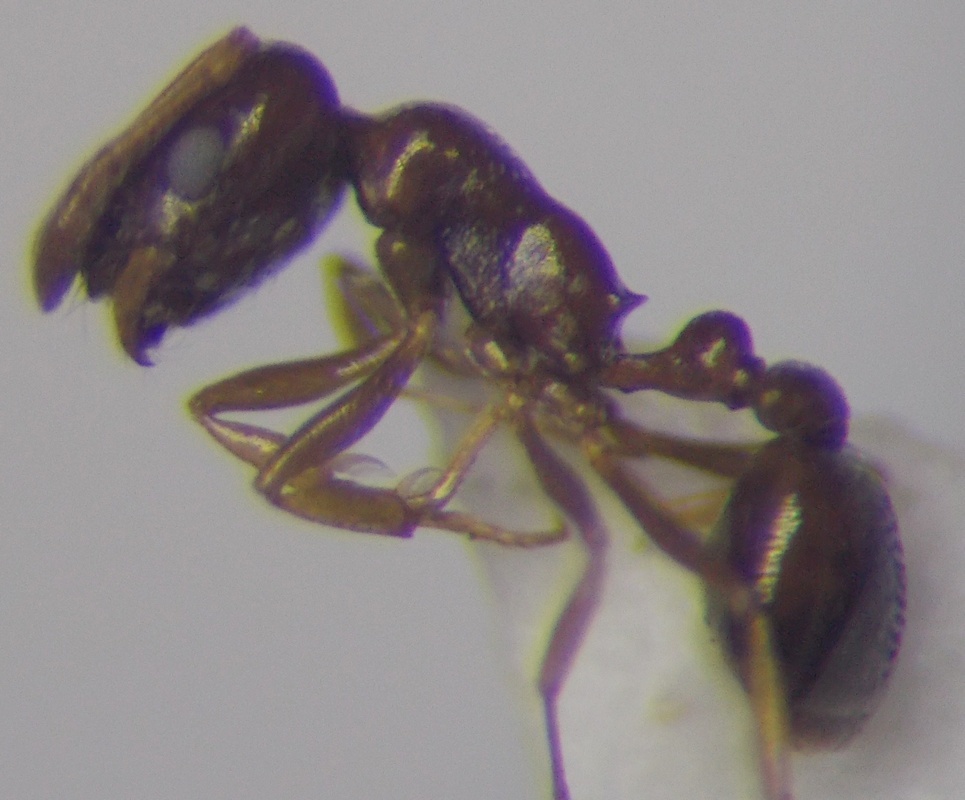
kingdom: Animalia
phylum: Arthropoda
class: Insecta
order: Hymenoptera
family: Formicidae
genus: Cardiocondyla
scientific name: Cardiocondyla ulianini
